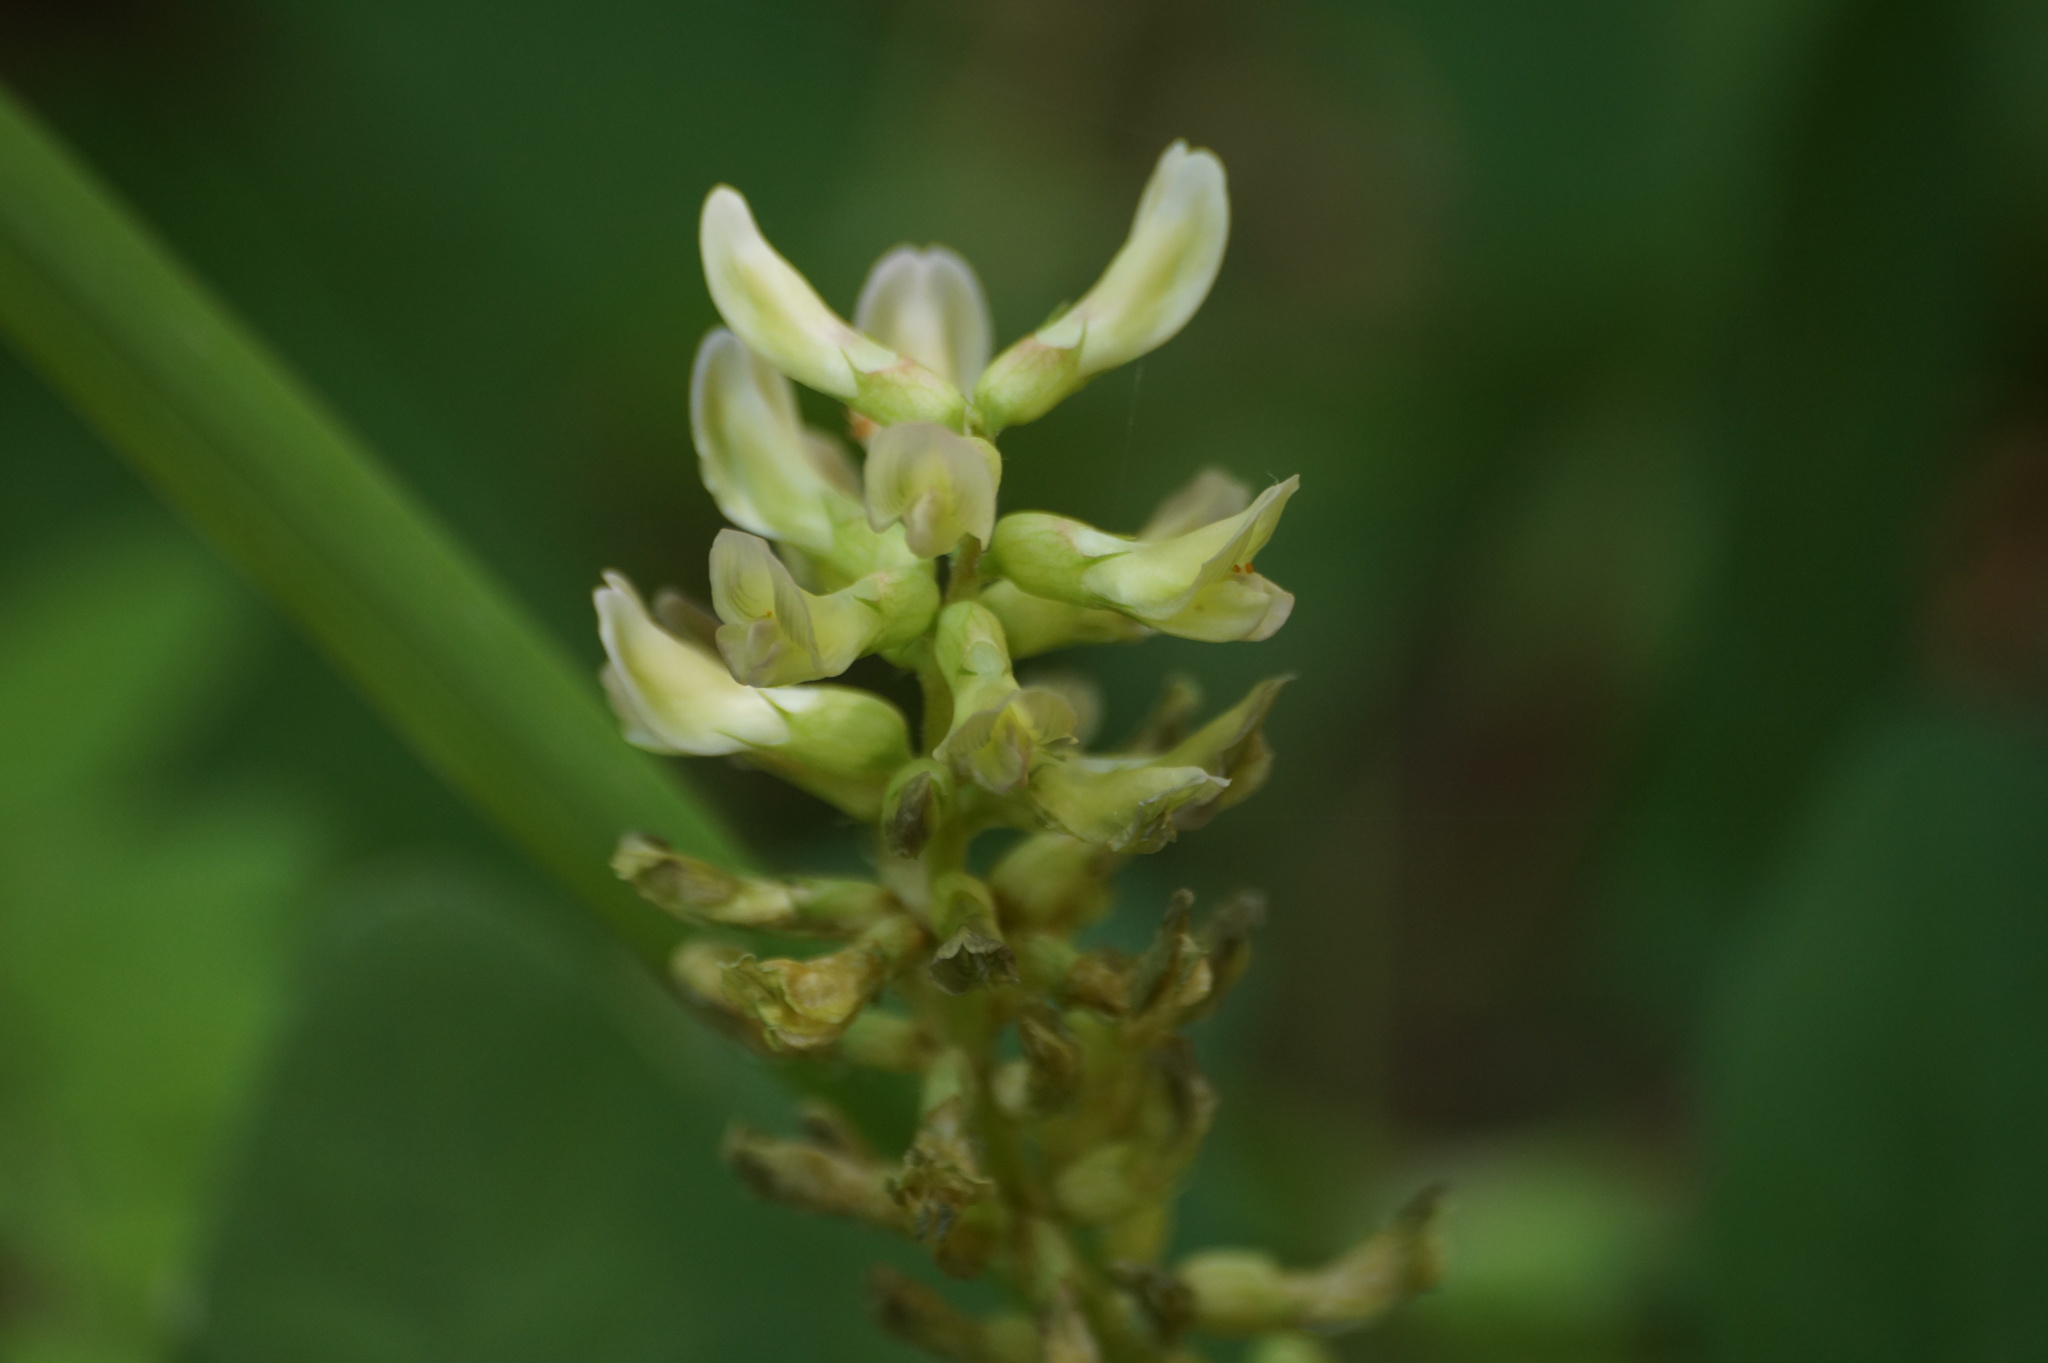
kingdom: Plantae
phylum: Tracheophyta
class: Magnoliopsida
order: Fabales
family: Fabaceae
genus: Astragalus
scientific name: Astragalus glycyphyllos
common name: Wild liquorice
